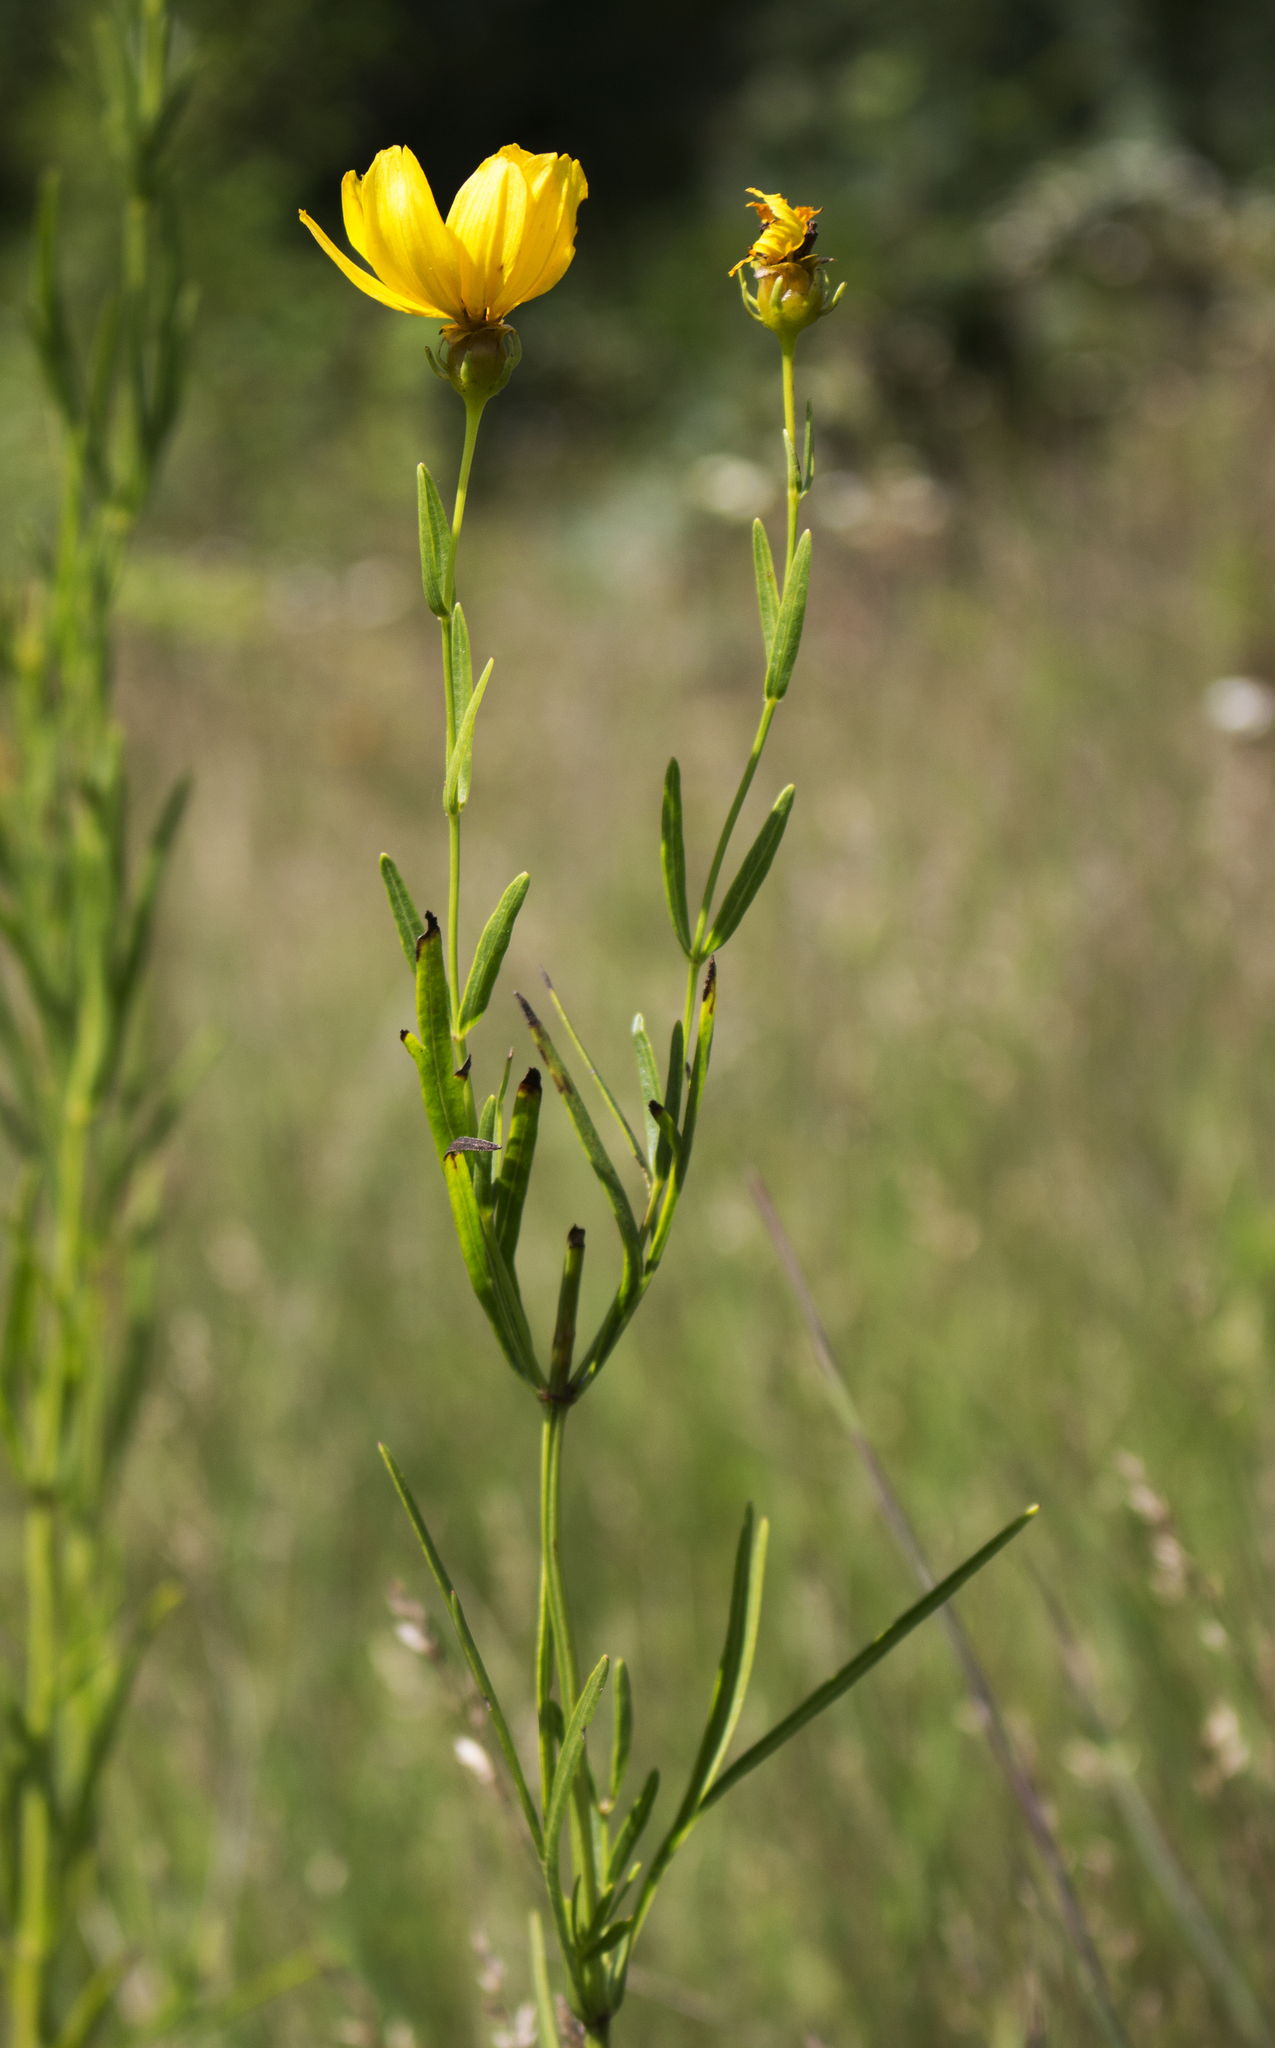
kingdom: Plantae
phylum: Tracheophyta
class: Magnoliopsida
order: Asterales
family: Asteraceae
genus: Coreopsis
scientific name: Coreopsis palmata
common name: Prairie coreopsis
